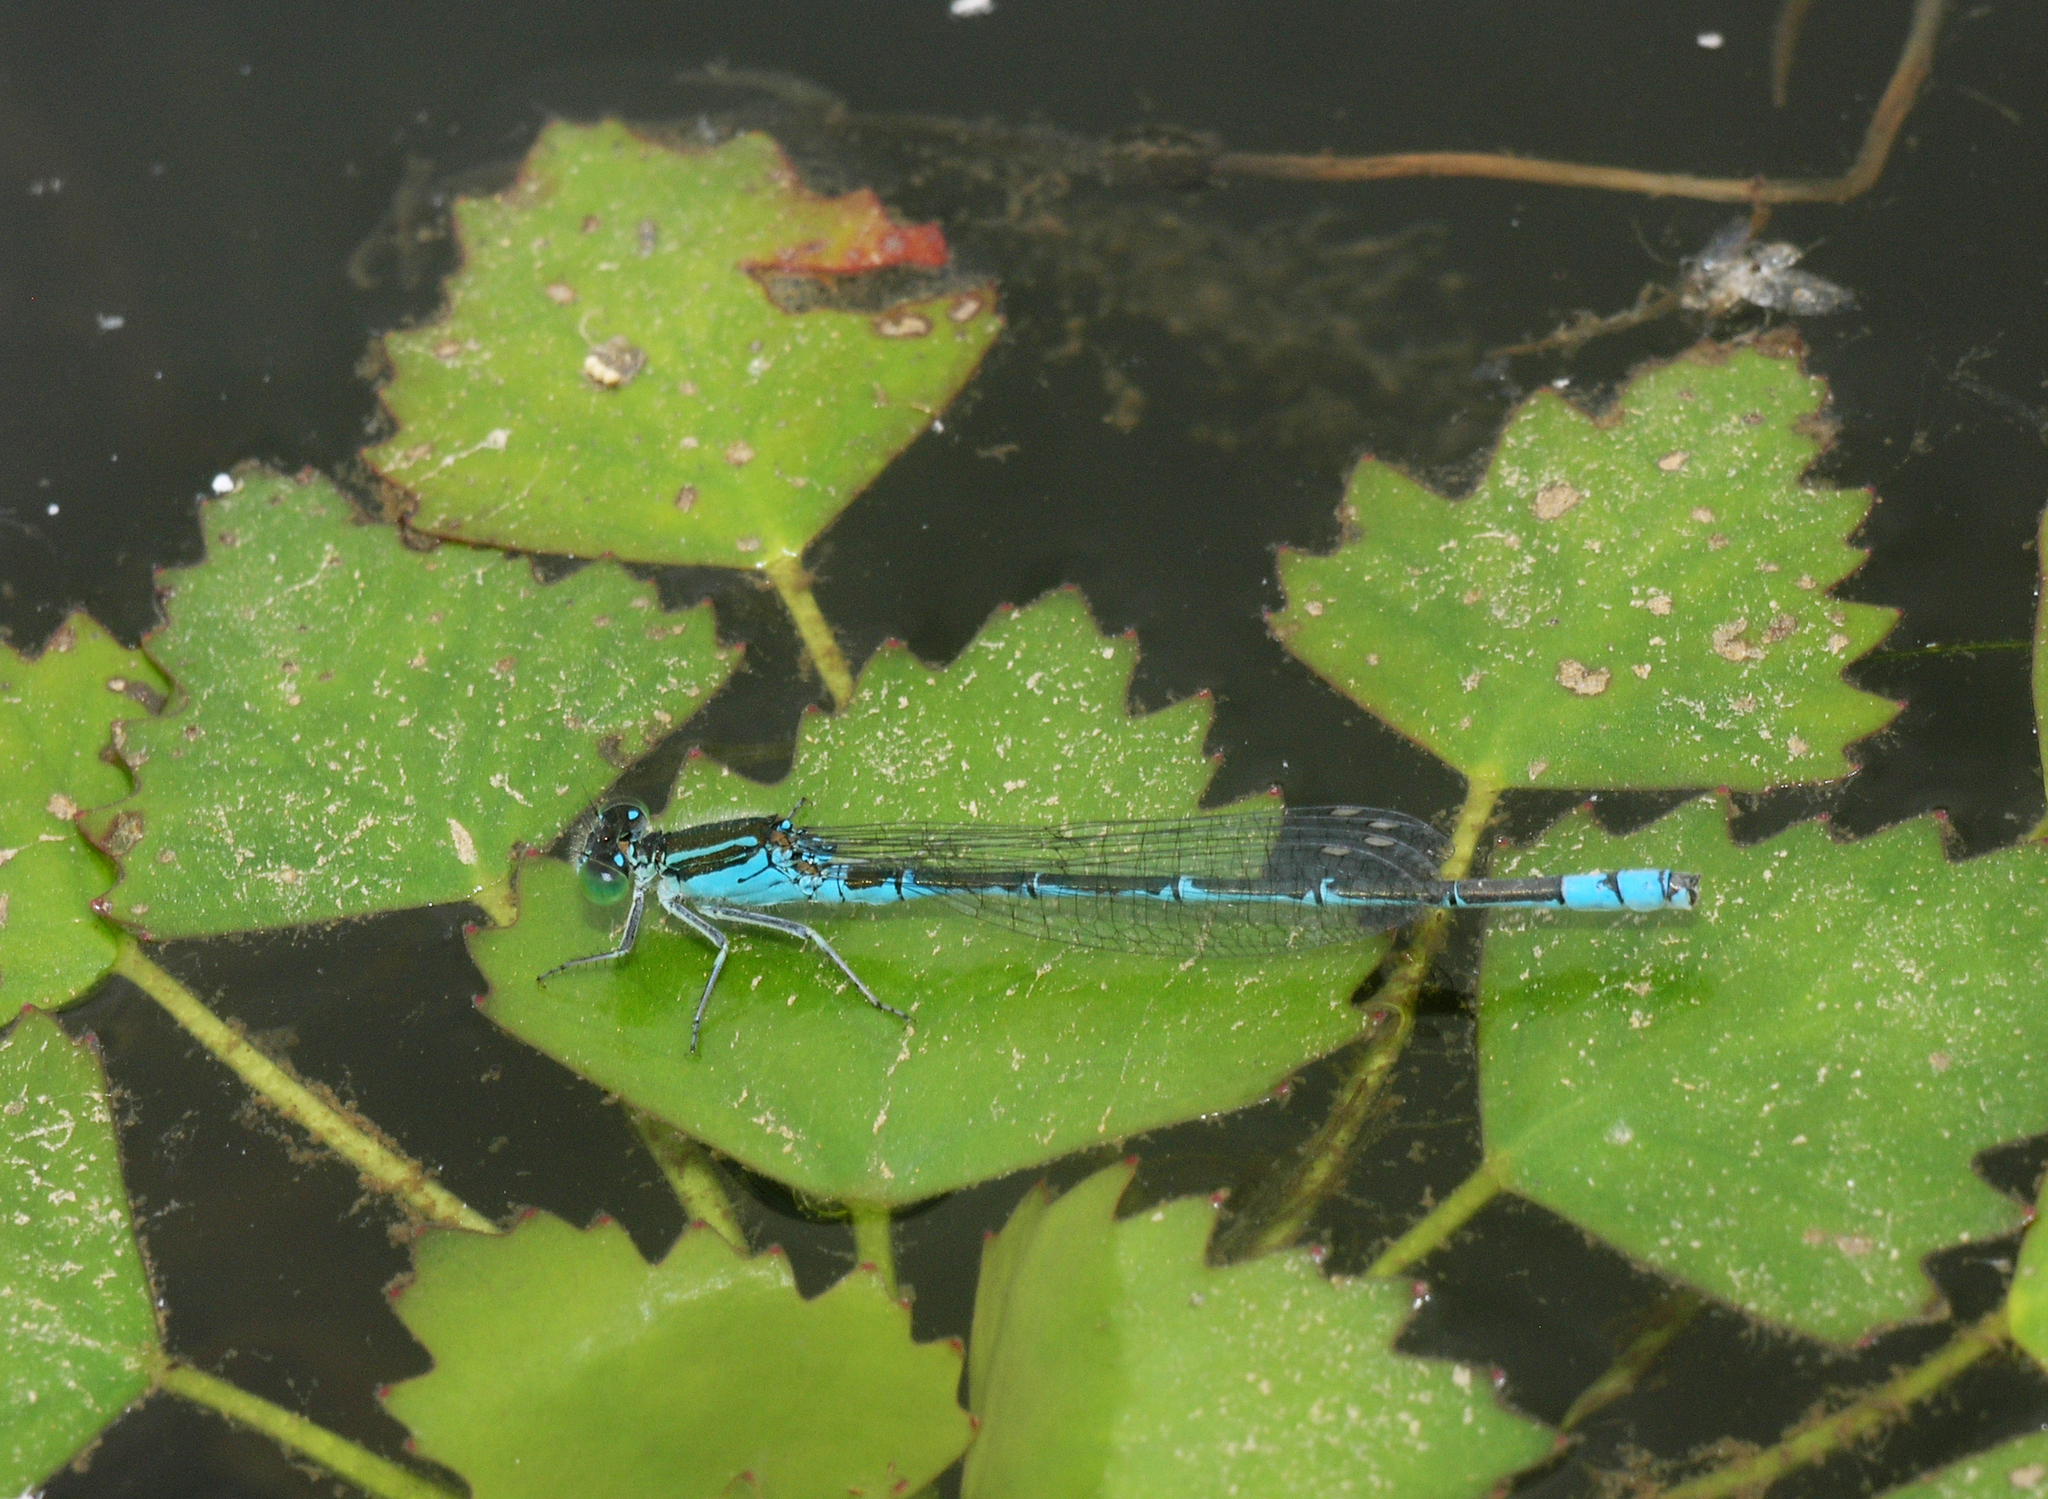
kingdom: Animalia
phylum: Arthropoda
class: Insecta
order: Odonata
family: Coenagrionidae
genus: Paracercion
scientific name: Paracercion hieroglyphicum
